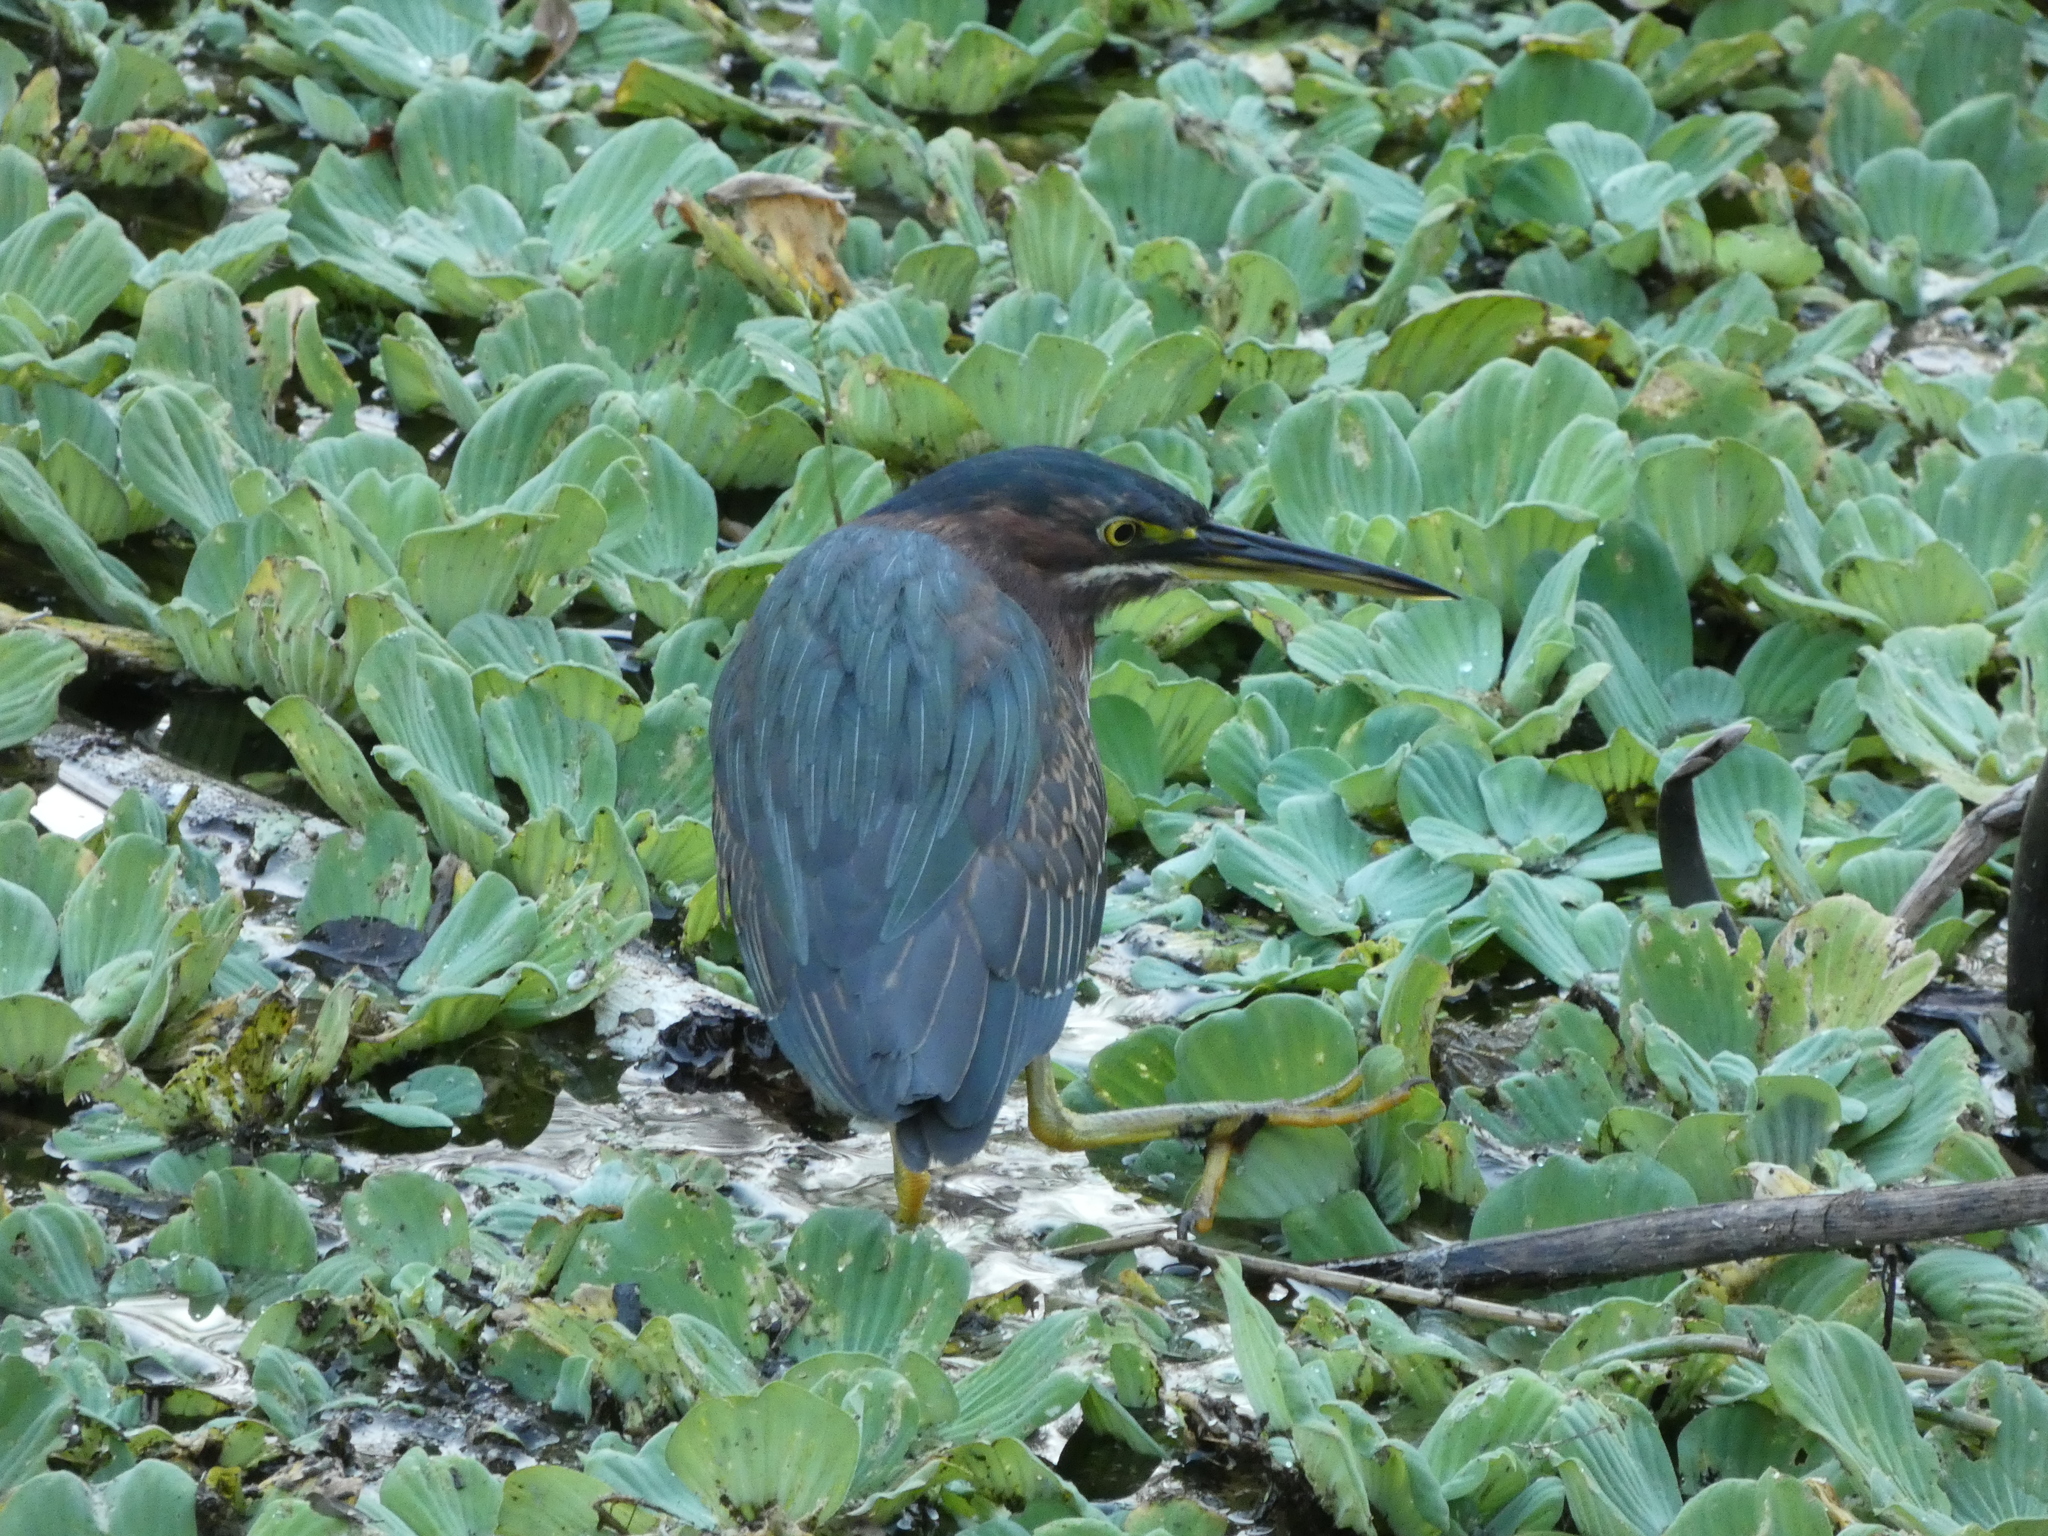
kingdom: Animalia
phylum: Chordata
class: Aves
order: Pelecaniformes
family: Ardeidae
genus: Butorides
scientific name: Butorides virescens
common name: Green heron
